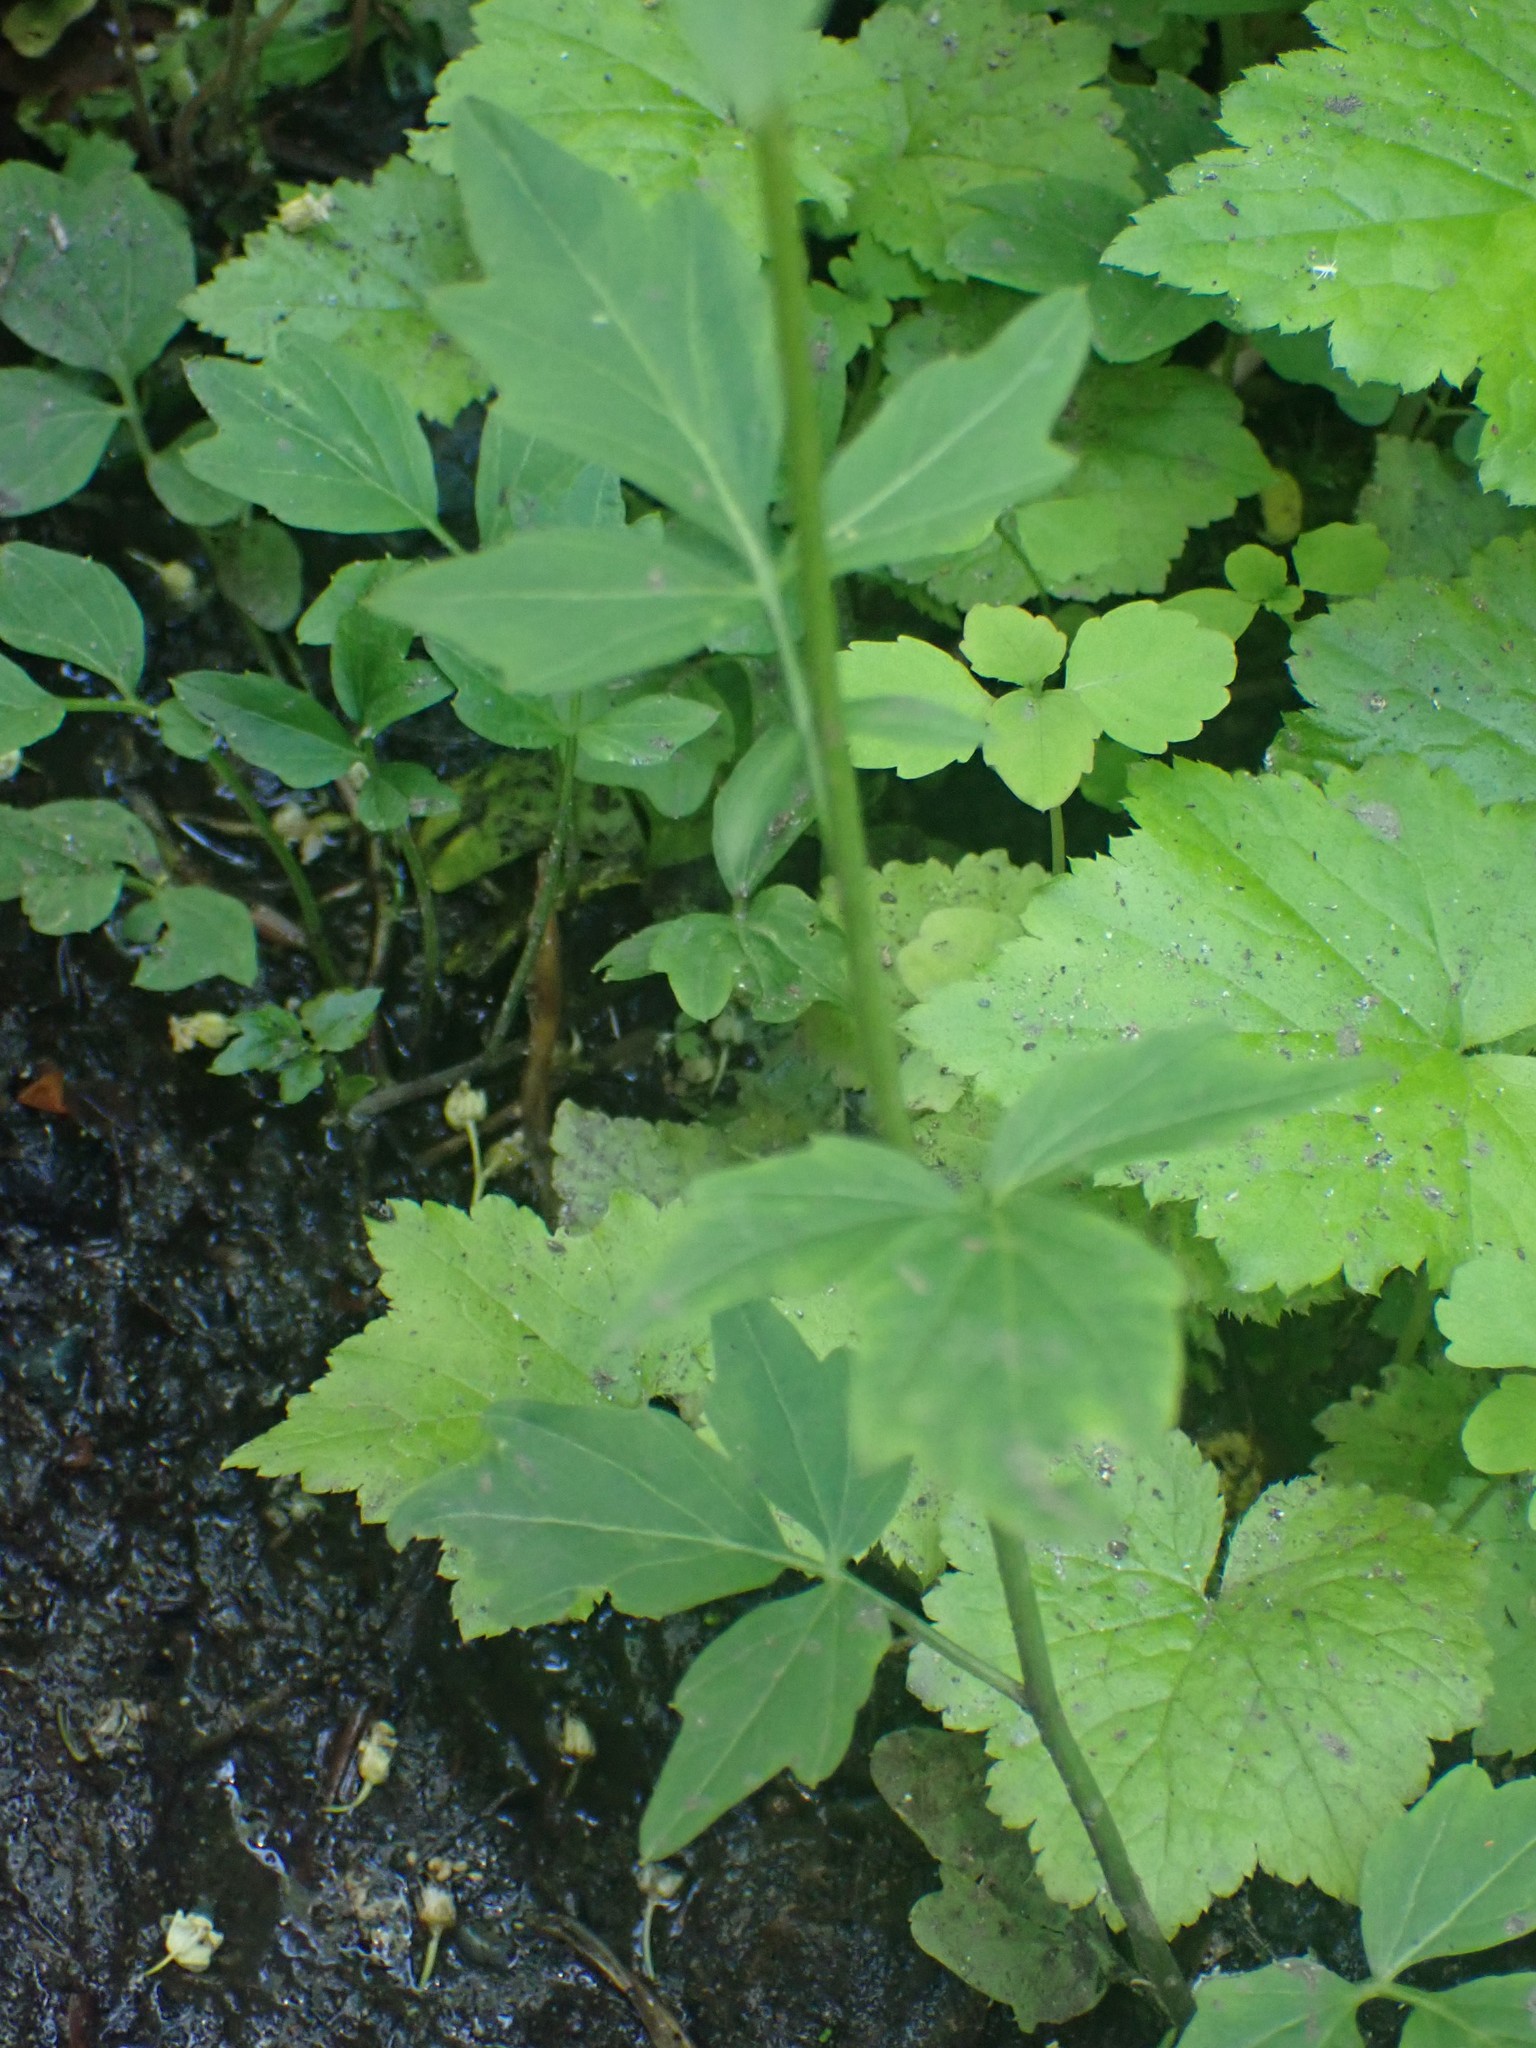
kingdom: Plantae
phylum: Tracheophyta
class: Magnoliopsida
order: Brassicales
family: Brassicaceae
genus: Cardamine
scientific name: Cardamine angulata
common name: Angled bittercress
